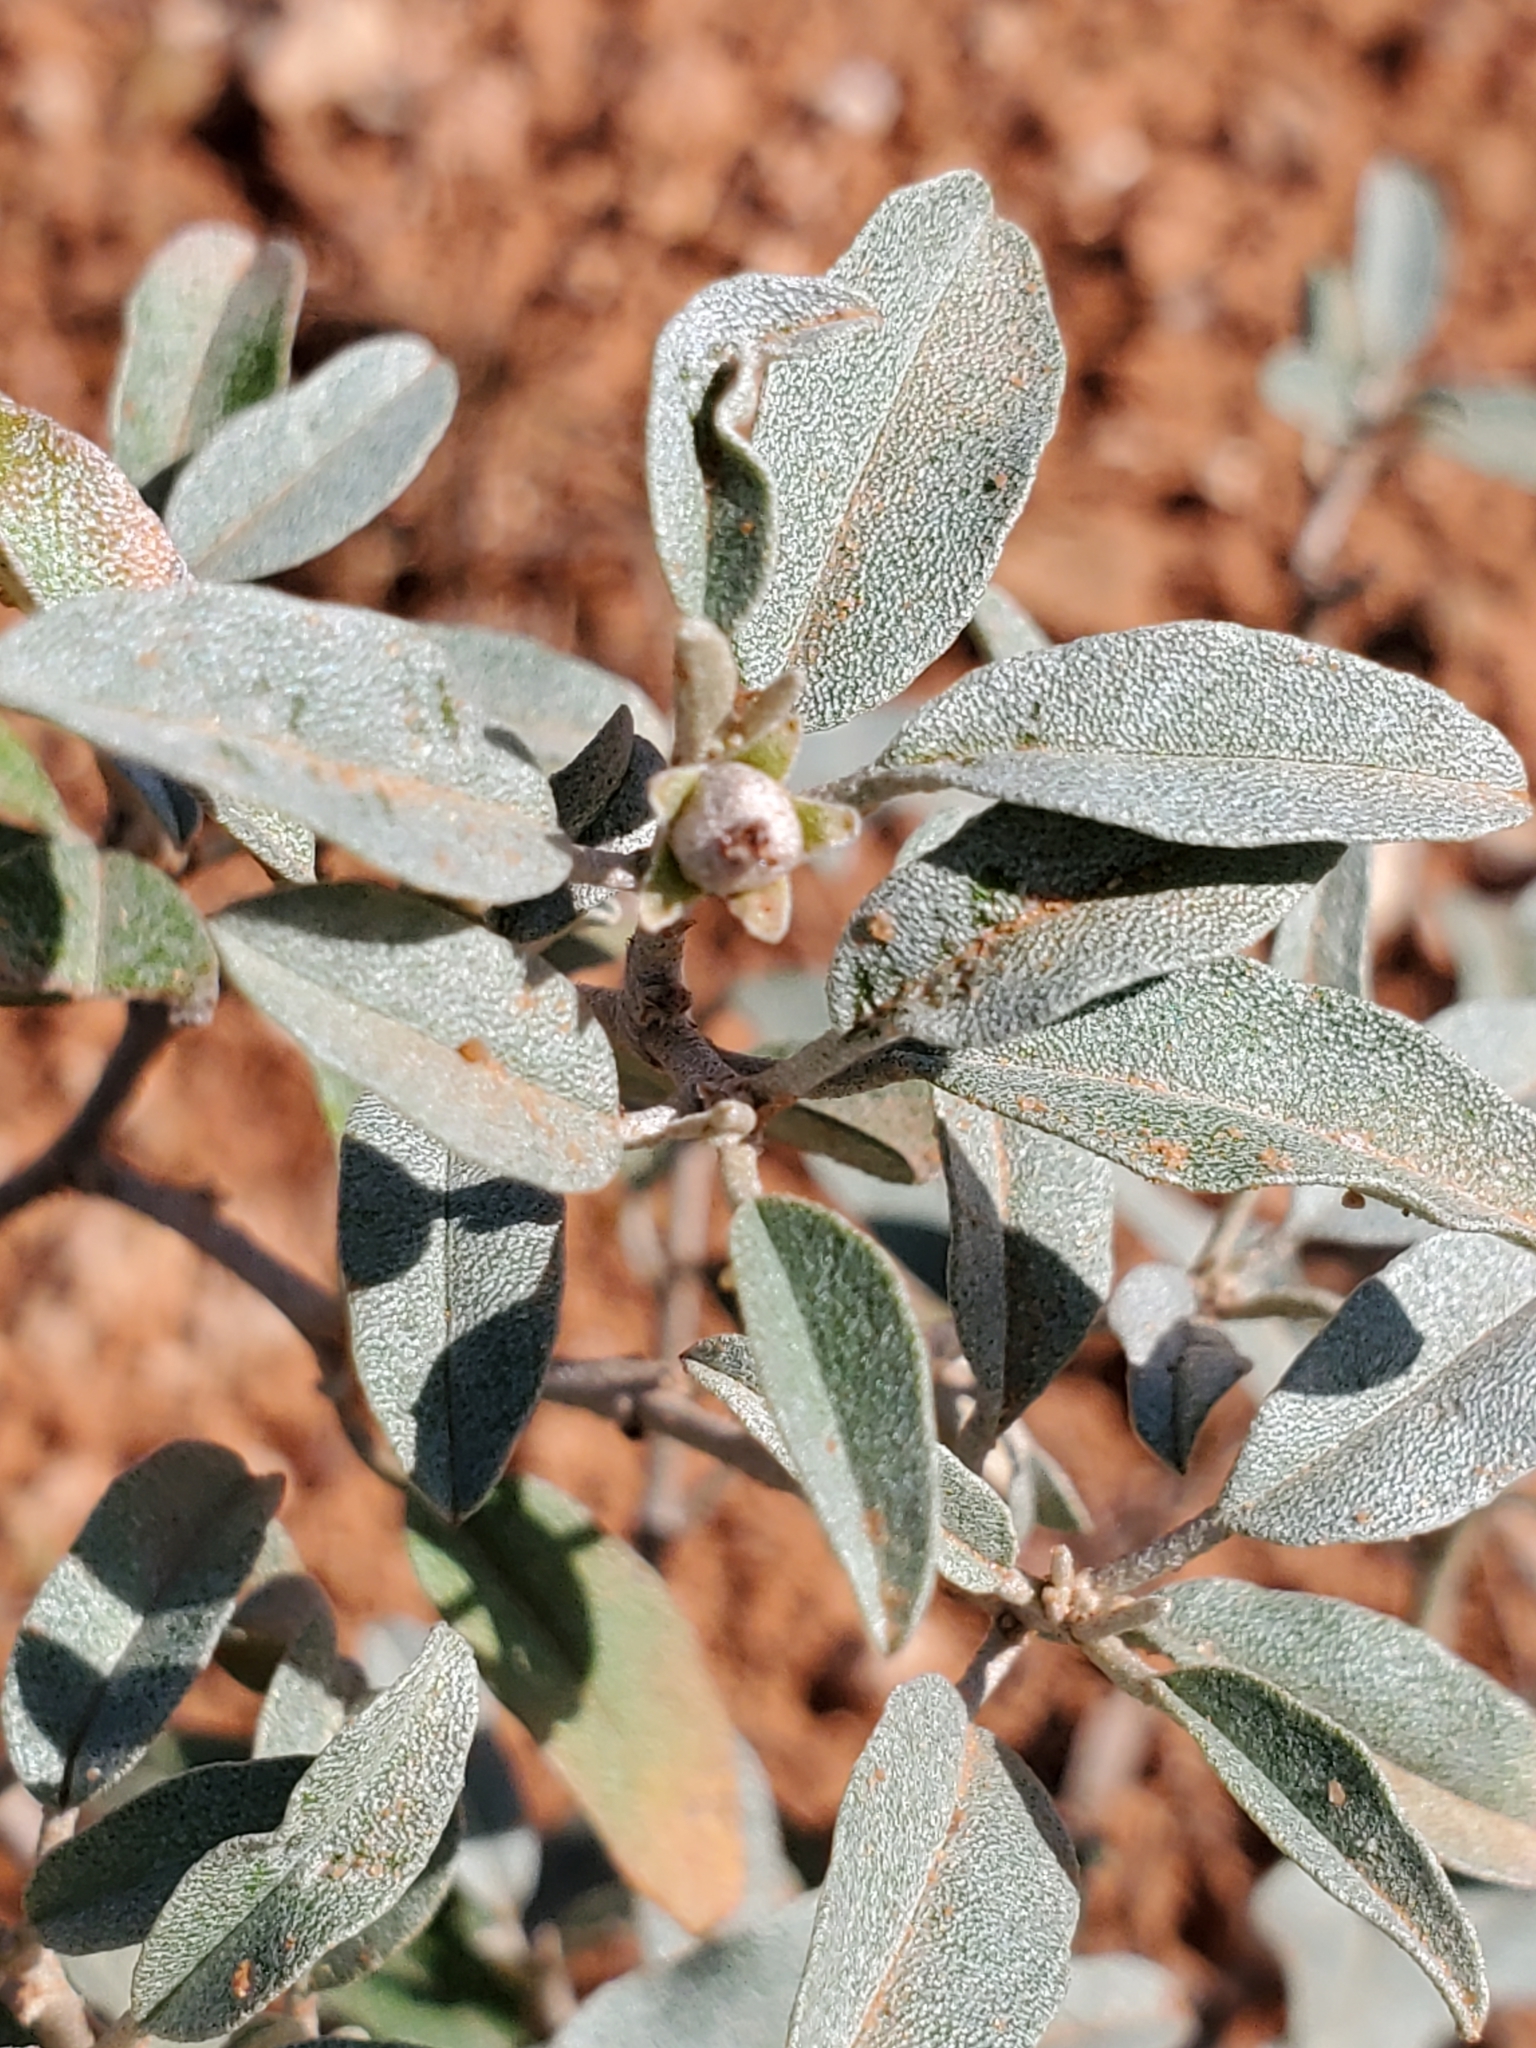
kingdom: Plantae
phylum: Tracheophyta
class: Magnoliopsida
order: Malpighiales
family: Euphorbiaceae
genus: Croton
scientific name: Croton dioicus
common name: Grassland croton
